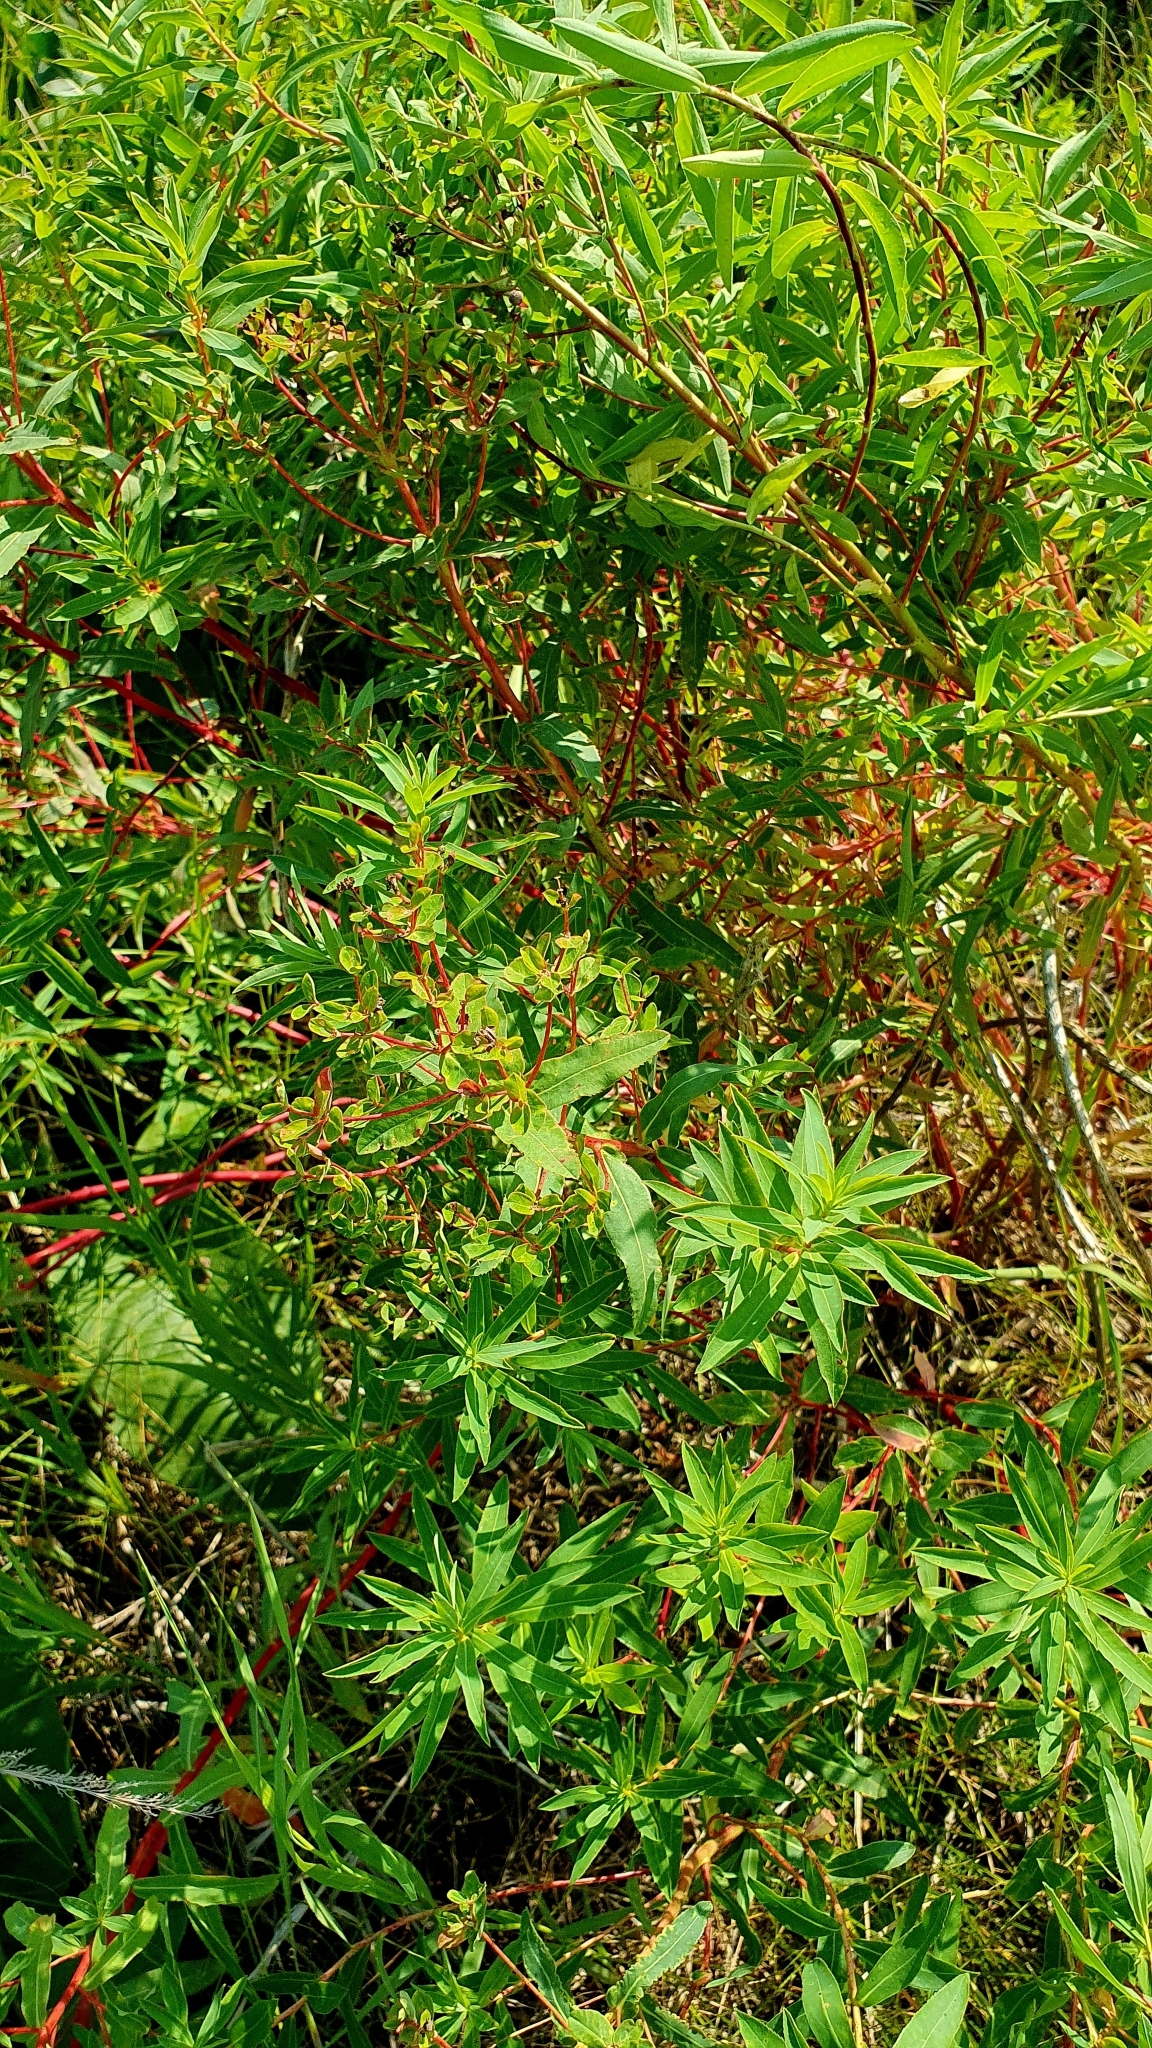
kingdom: Plantae
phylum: Tracheophyta
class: Magnoliopsida
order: Malpighiales
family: Euphorbiaceae
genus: Euphorbia
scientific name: Euphorbia semivillosa
